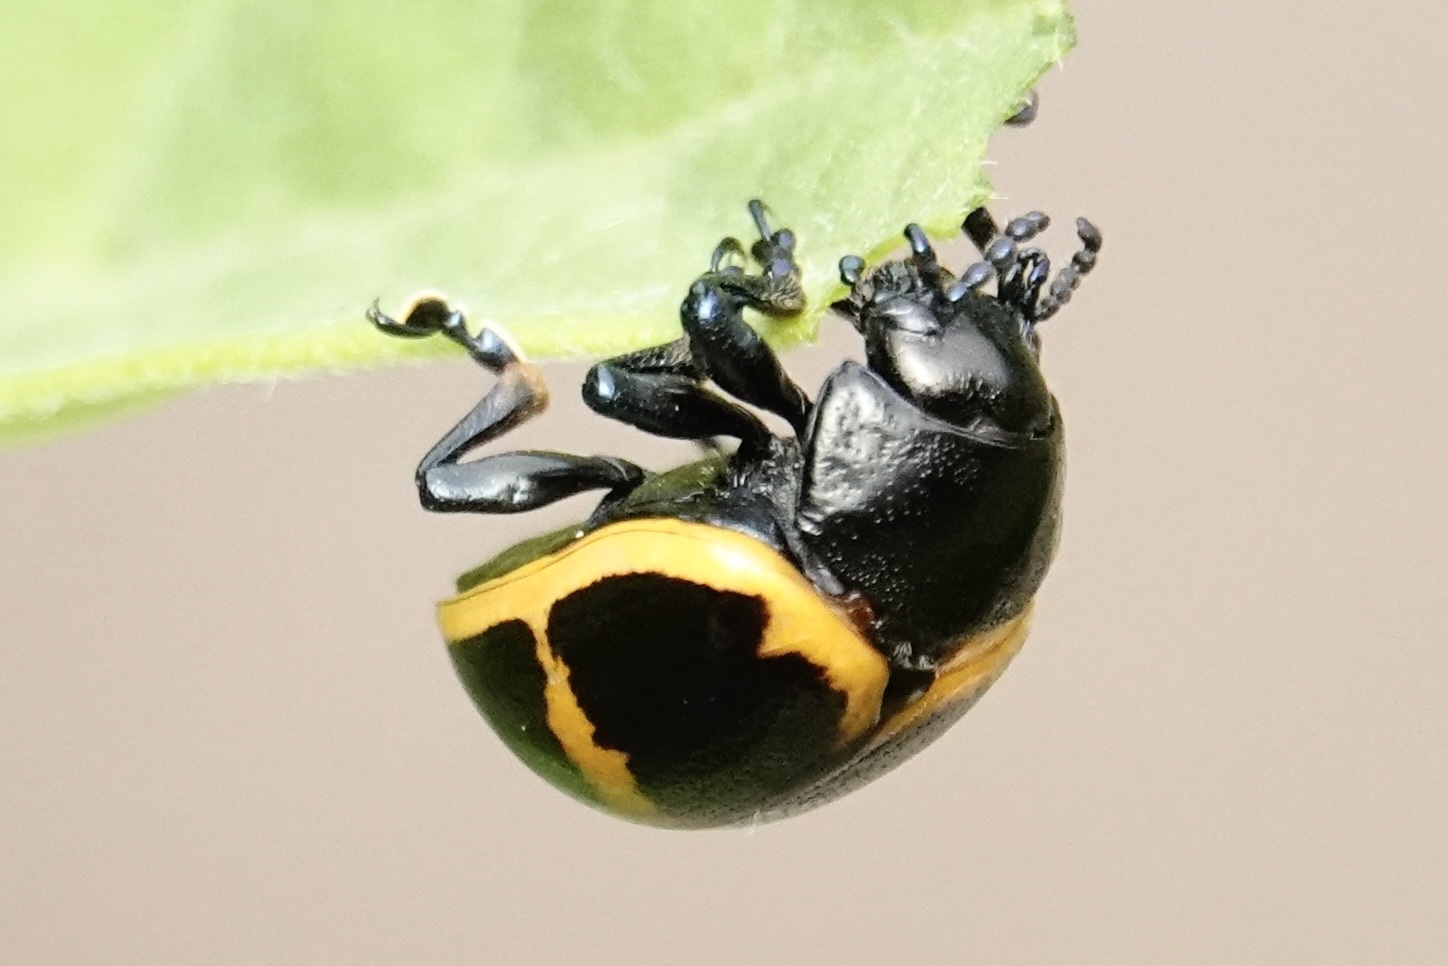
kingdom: Animalia
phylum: Arthropoda
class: Insecta
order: Coleoptera
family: Chrysomelidae
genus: Labidomera
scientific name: Labidomera clivicollis
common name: Swamp milkweed leaf beetle
